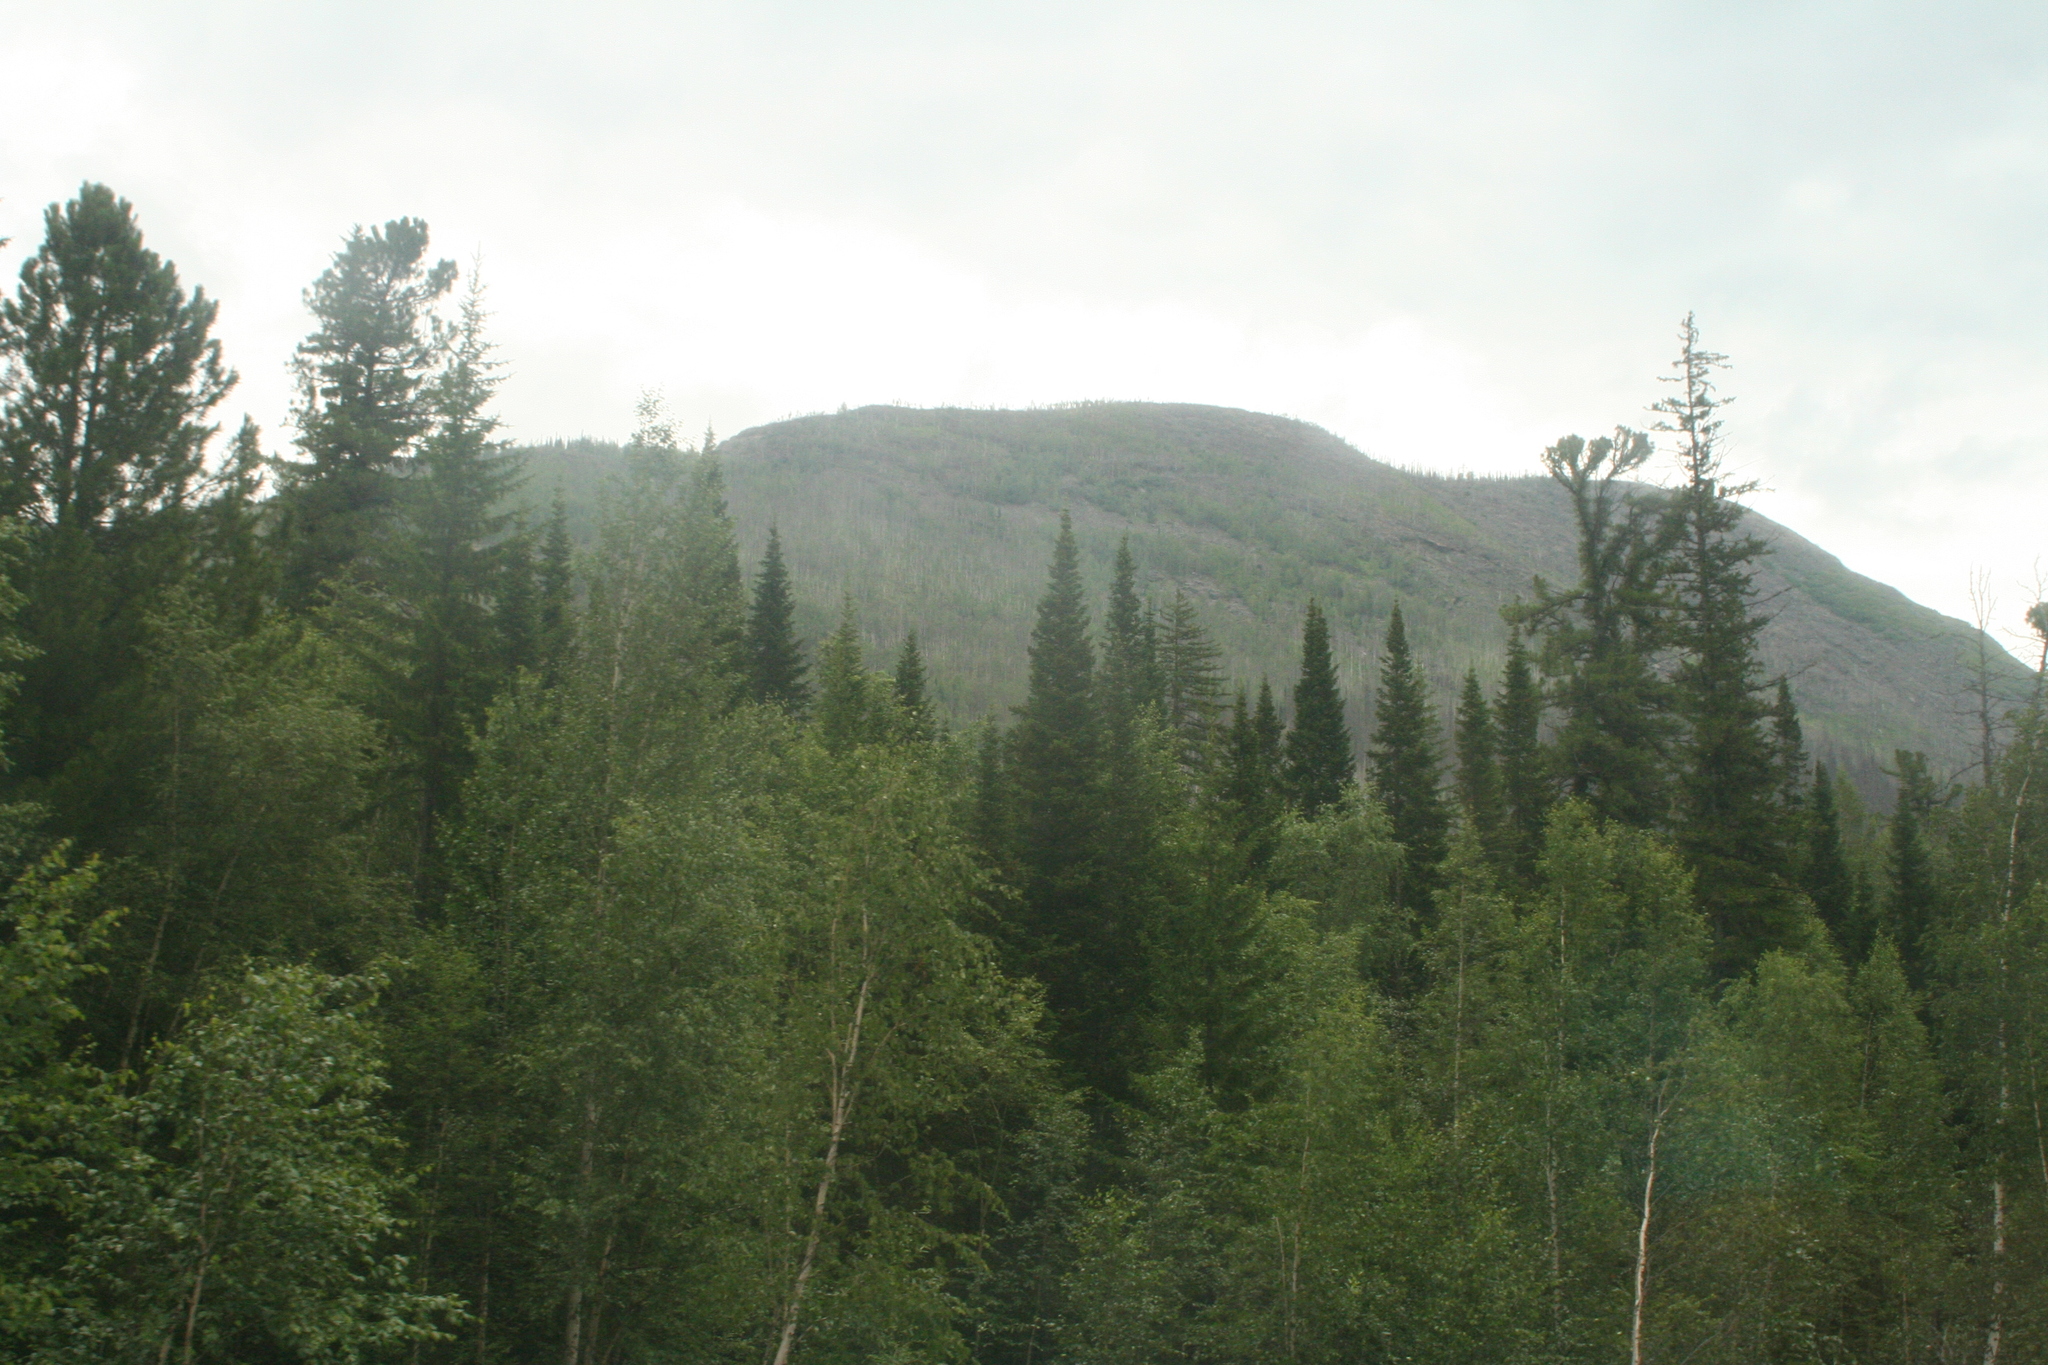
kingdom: Plantae
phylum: Tracheophyta
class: Pinopsida
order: Pinales
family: Pinaceae
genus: Picea
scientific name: Picea obovata
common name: Siberian spruce
